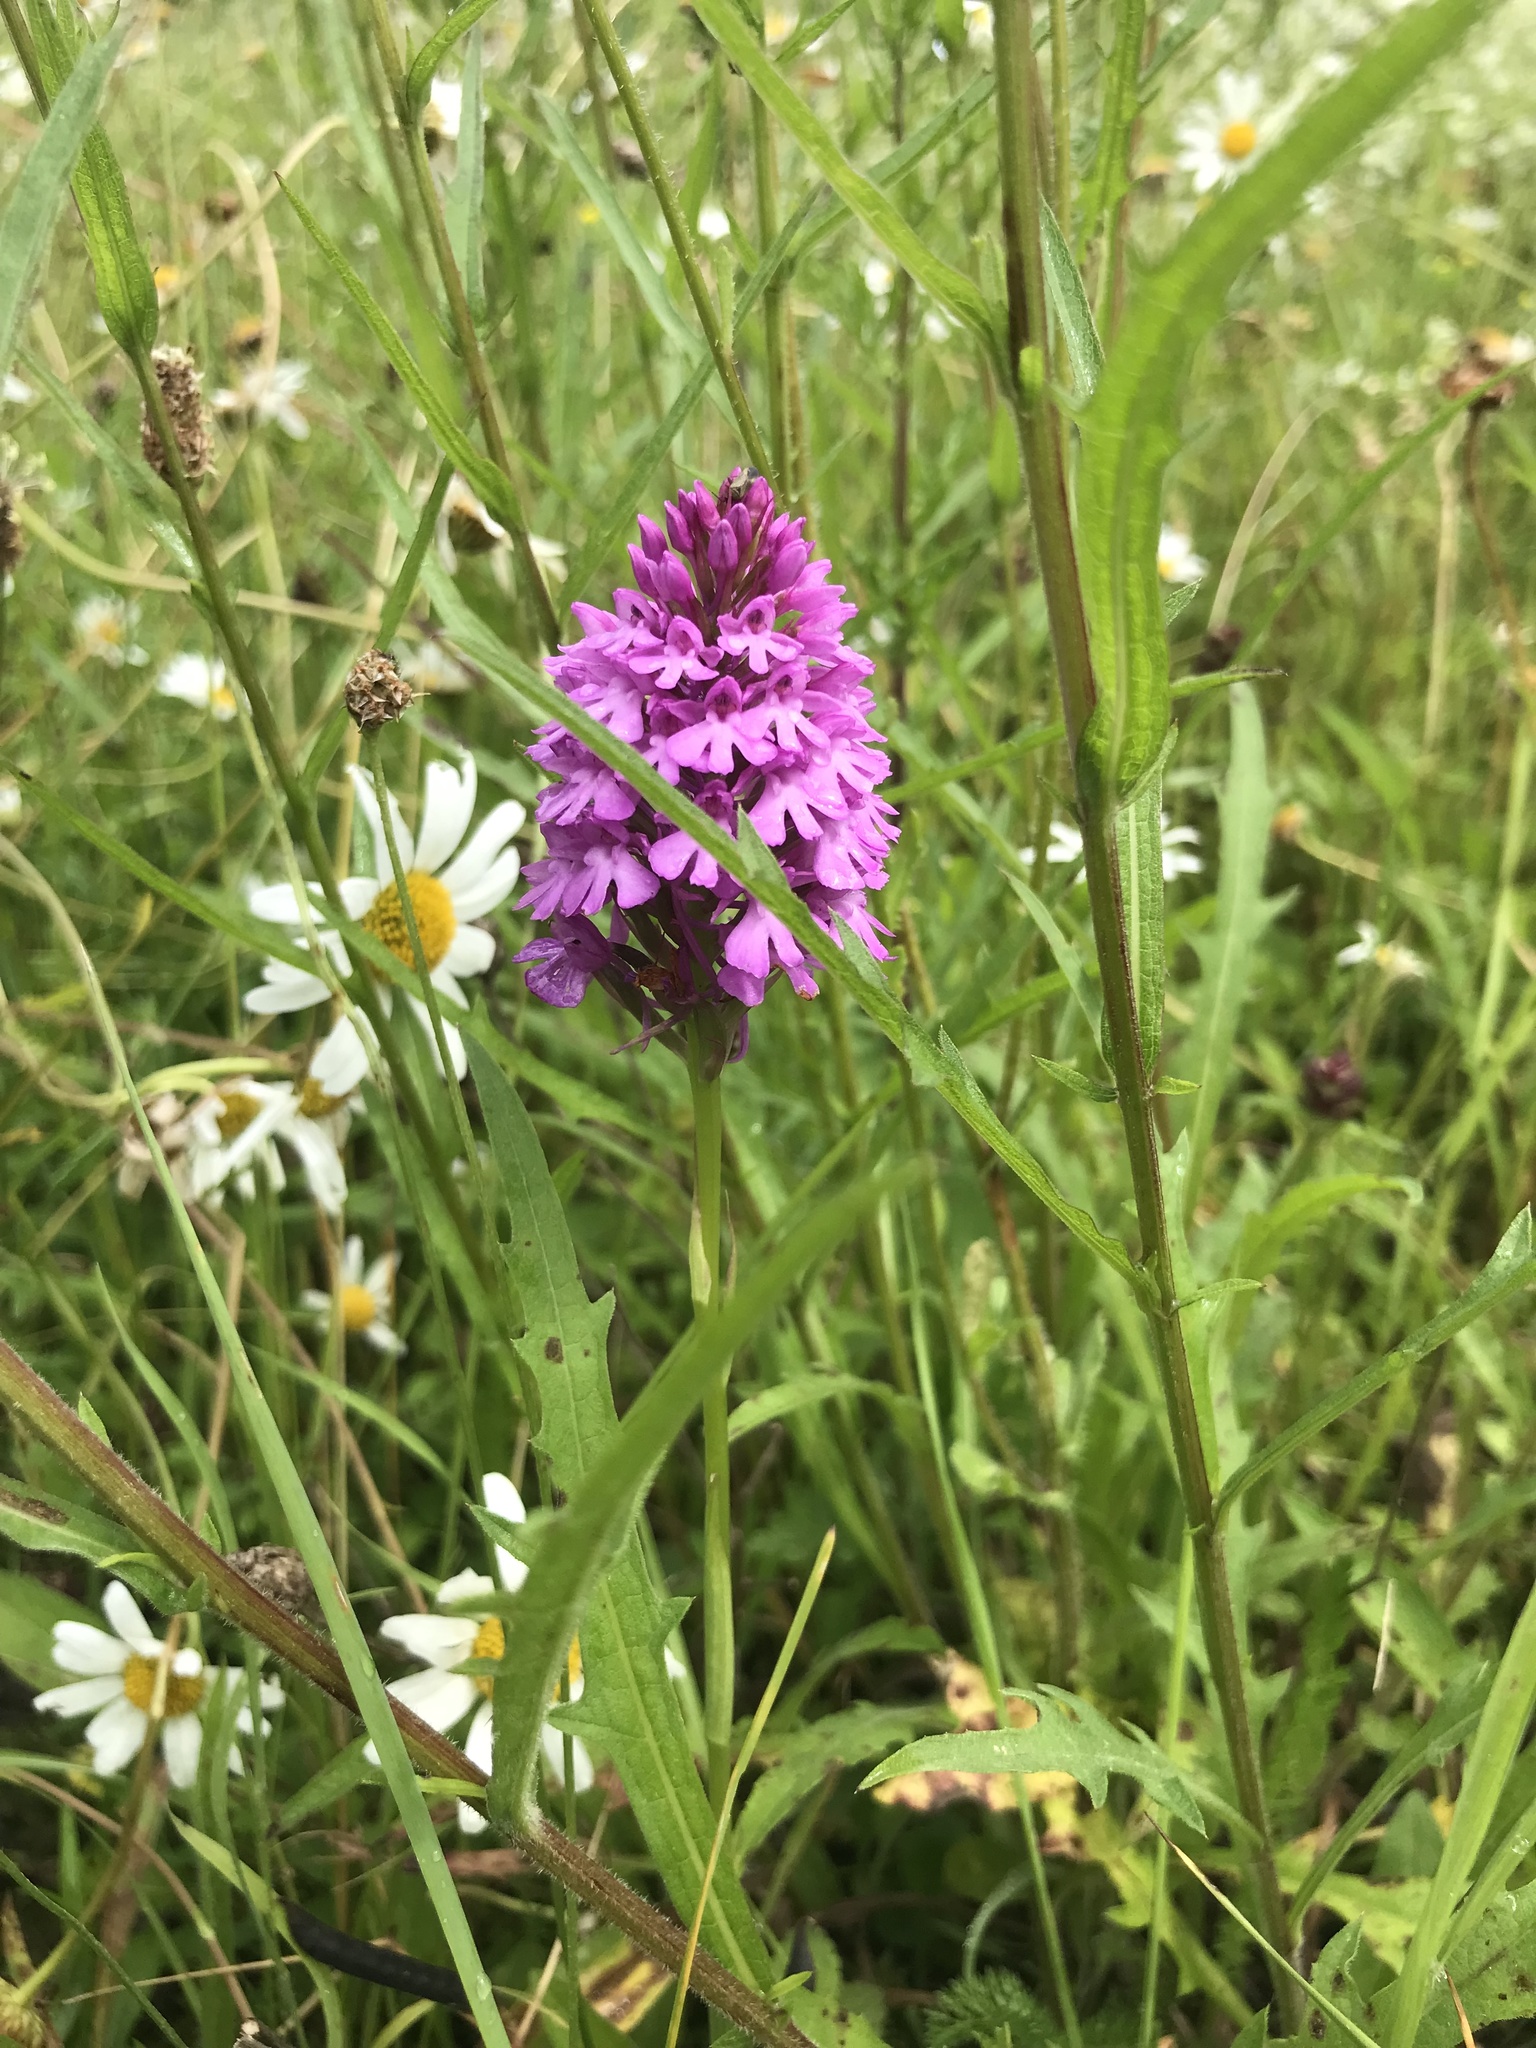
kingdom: Plantae
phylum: Tracheophyta
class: Liliopsida
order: Asparagales
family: Orchidaceae
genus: Anacamptis
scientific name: Anacamptis pyramidalis
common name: Pyramidal orchid
